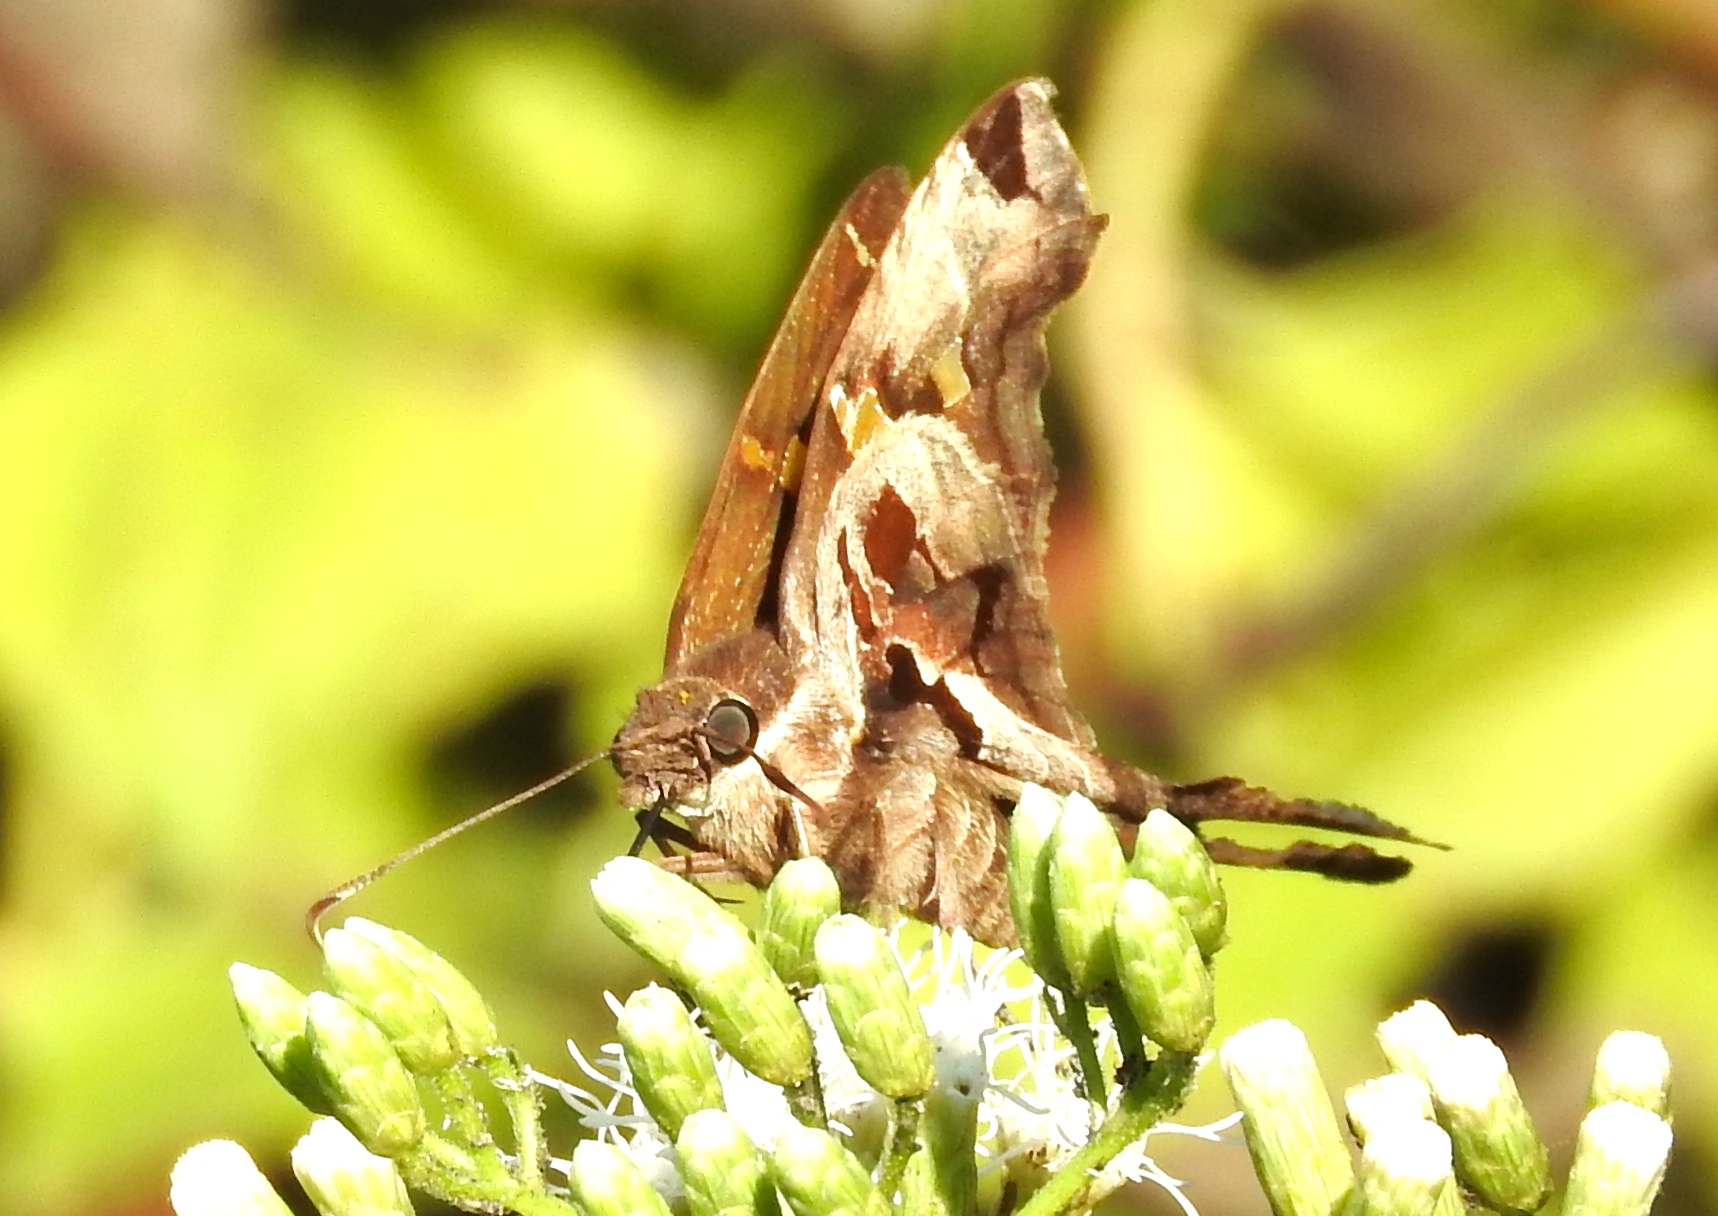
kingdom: Animalia
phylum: Arthropoda
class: Insecta
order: Lepidoptera
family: Hesperiidae
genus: Chioides
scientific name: Chioides zilpa
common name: Zilpa longtail
